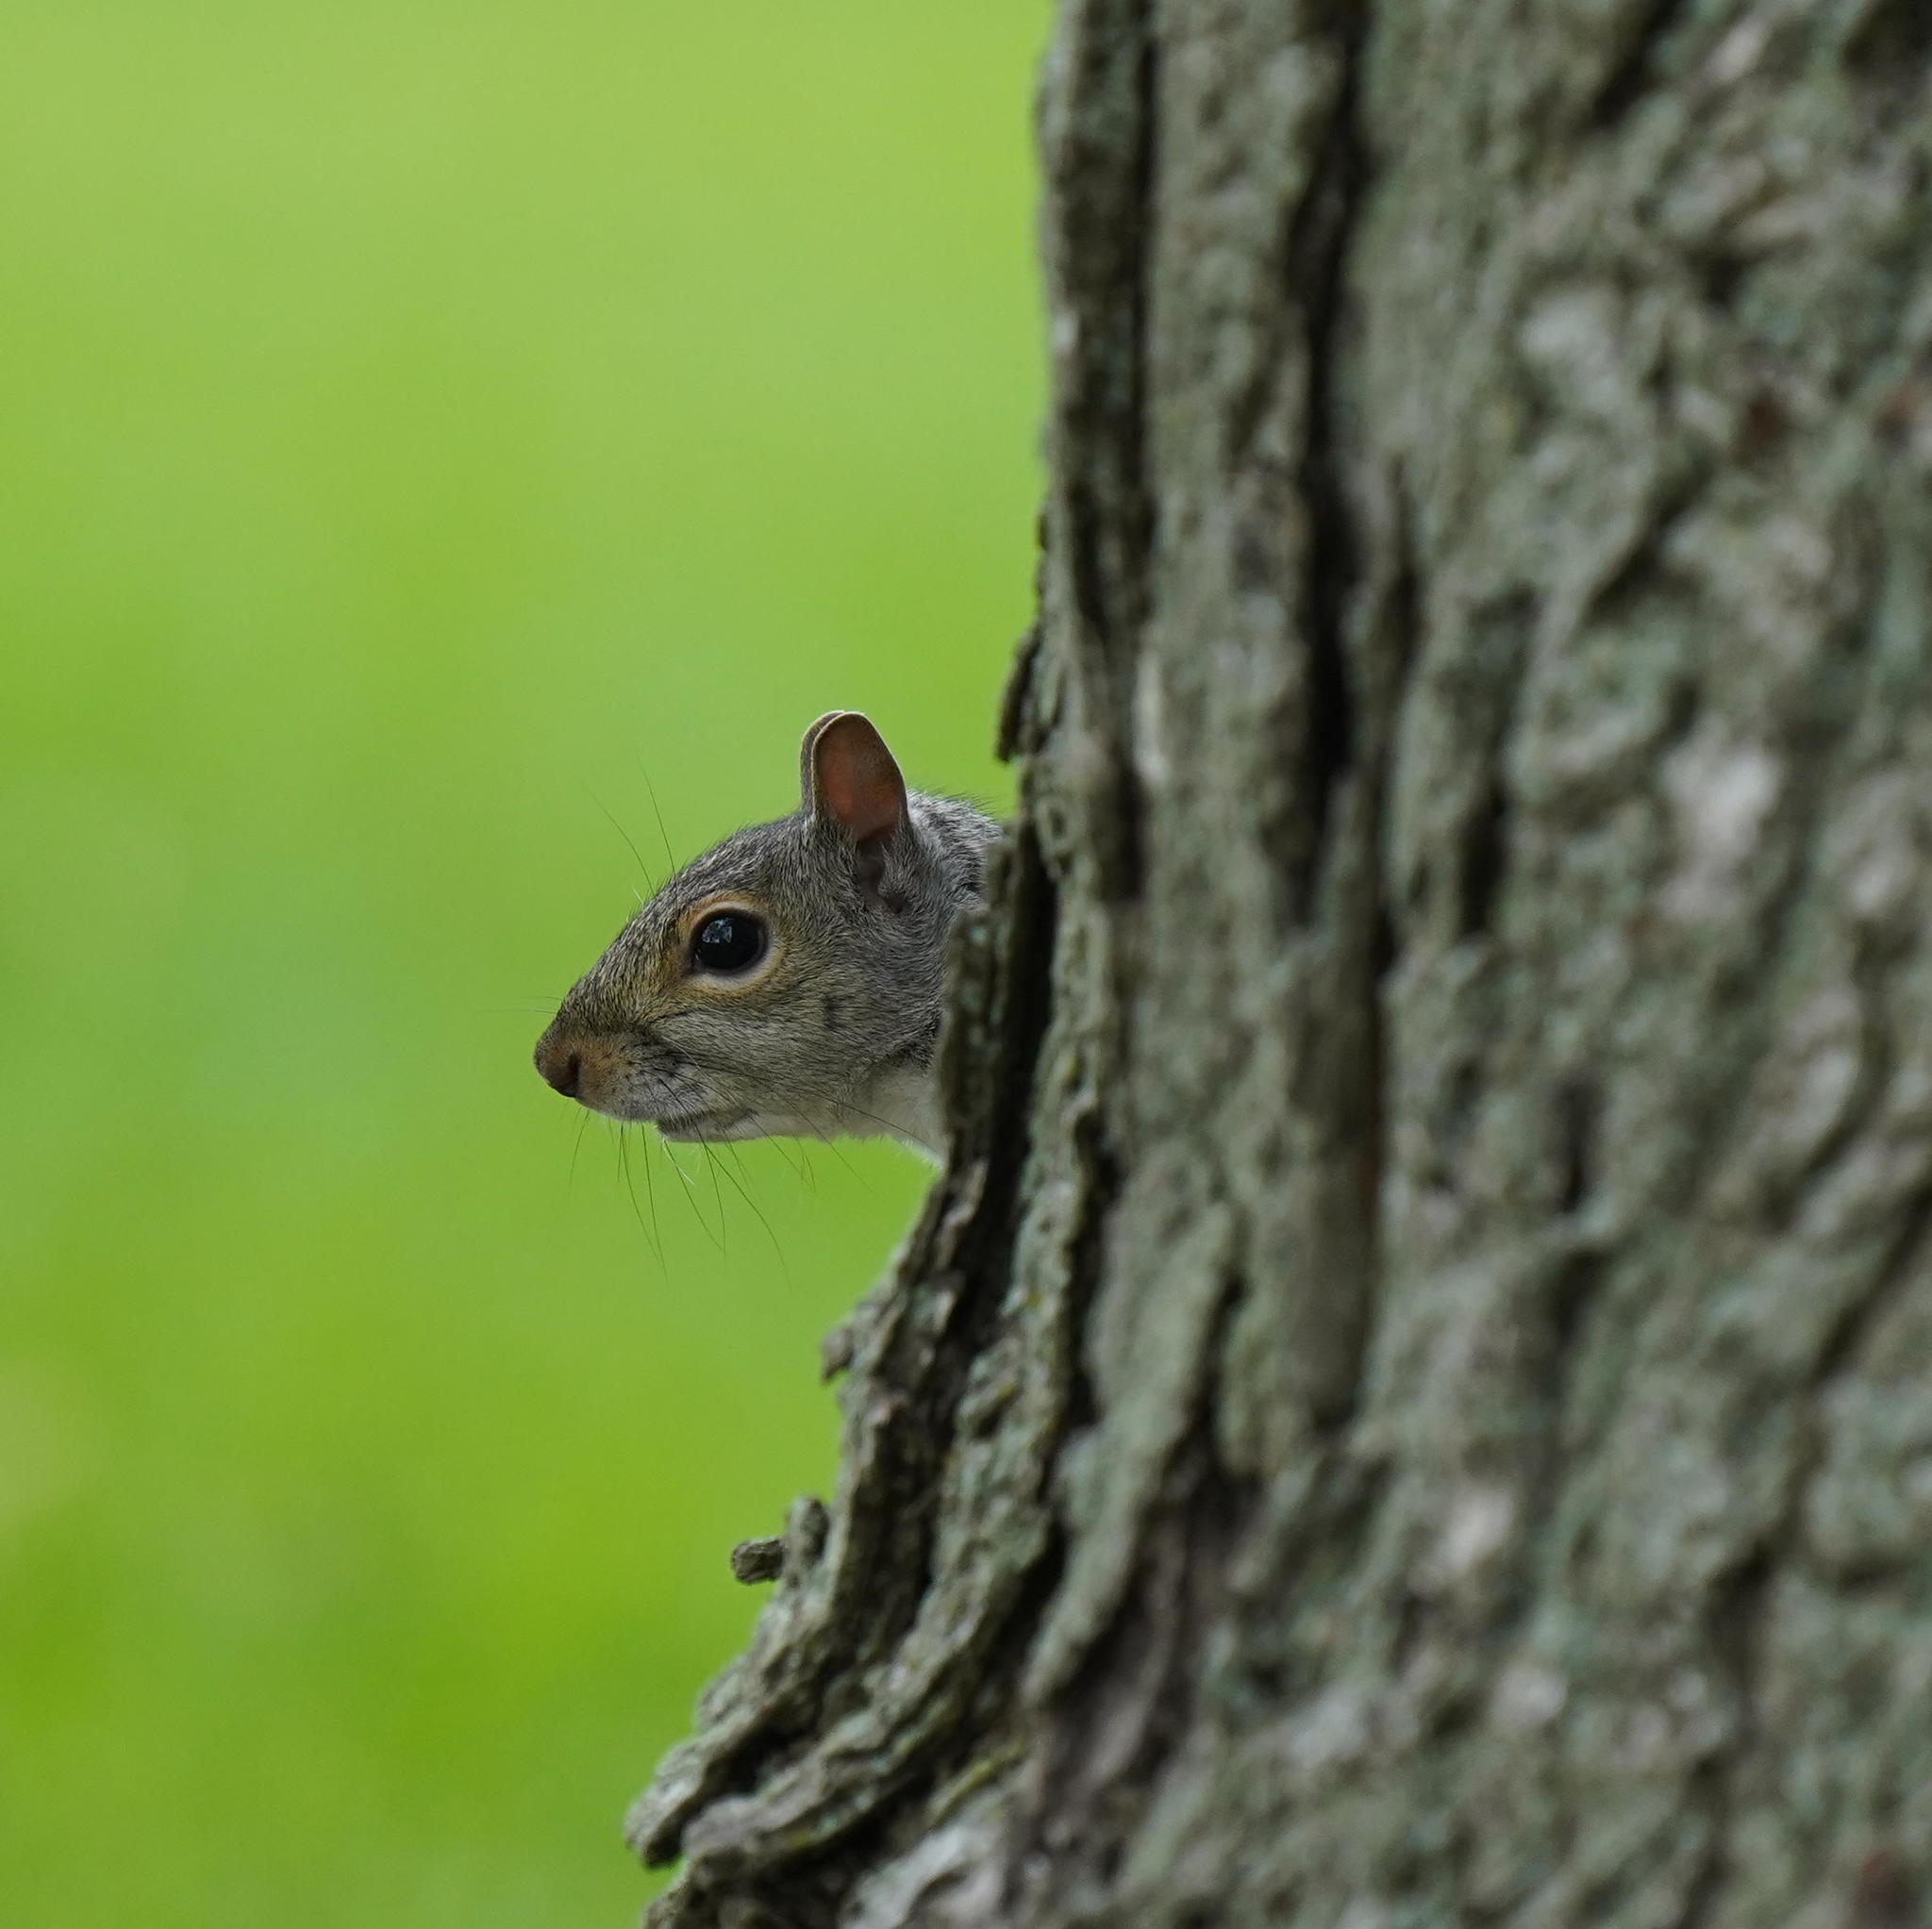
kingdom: Animalia
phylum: Chordata
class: Mammalia
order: Rodentia
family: Sciuridae
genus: Sciurus
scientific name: Sciurus carolinensis
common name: Eastern gray squirrel
